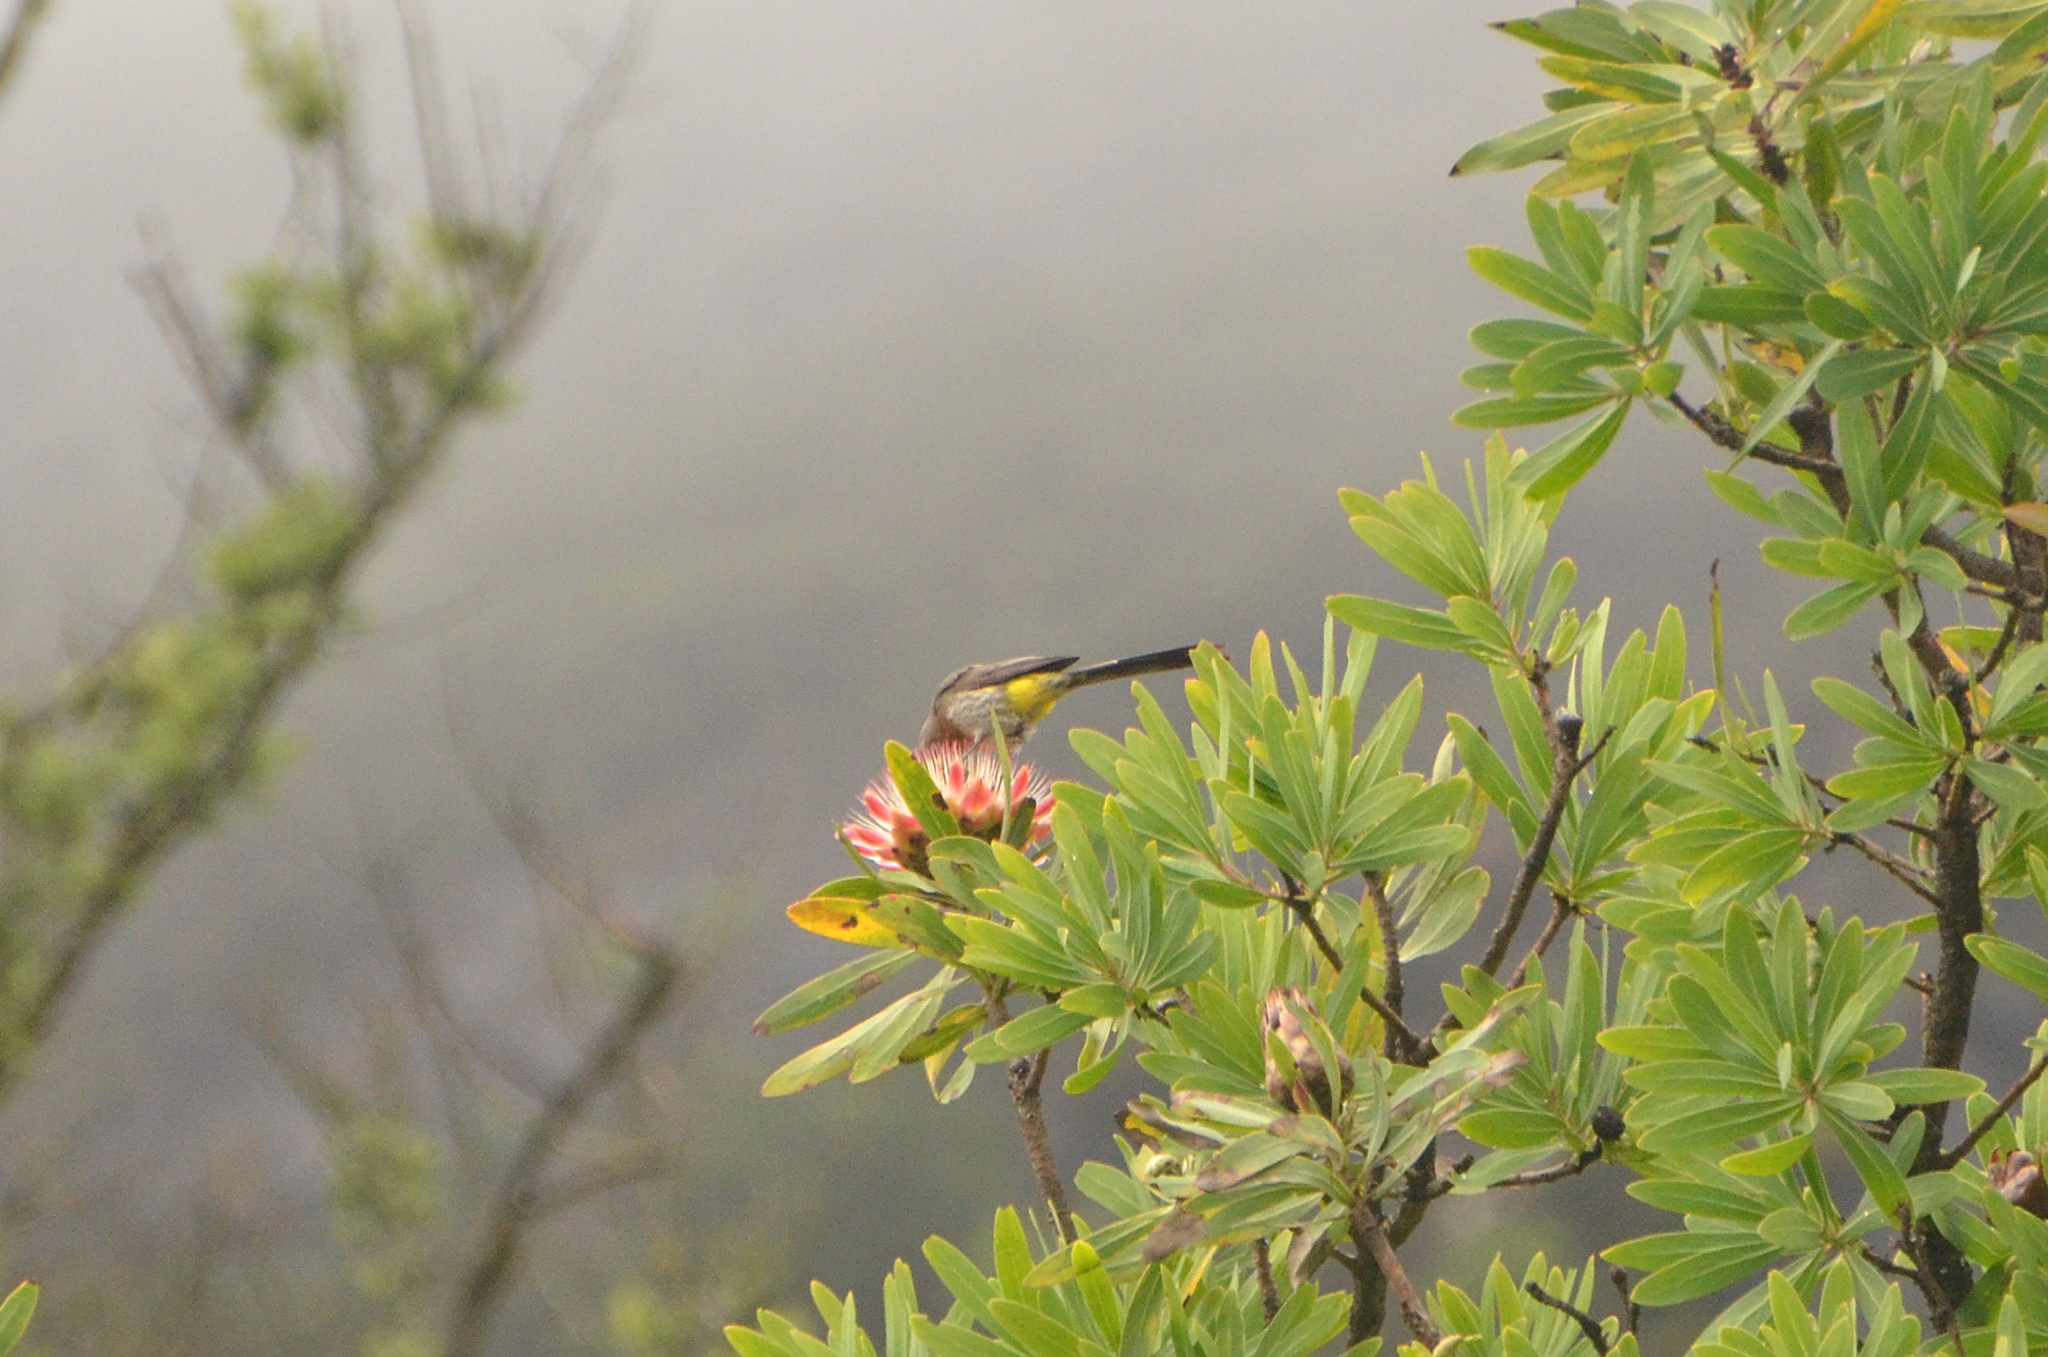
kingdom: Animalia
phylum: Chordata
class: Aves
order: Passeriformes
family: Promeropidae
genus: Promerops
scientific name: Promerops gurneyi
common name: Gurney's sugarbird
